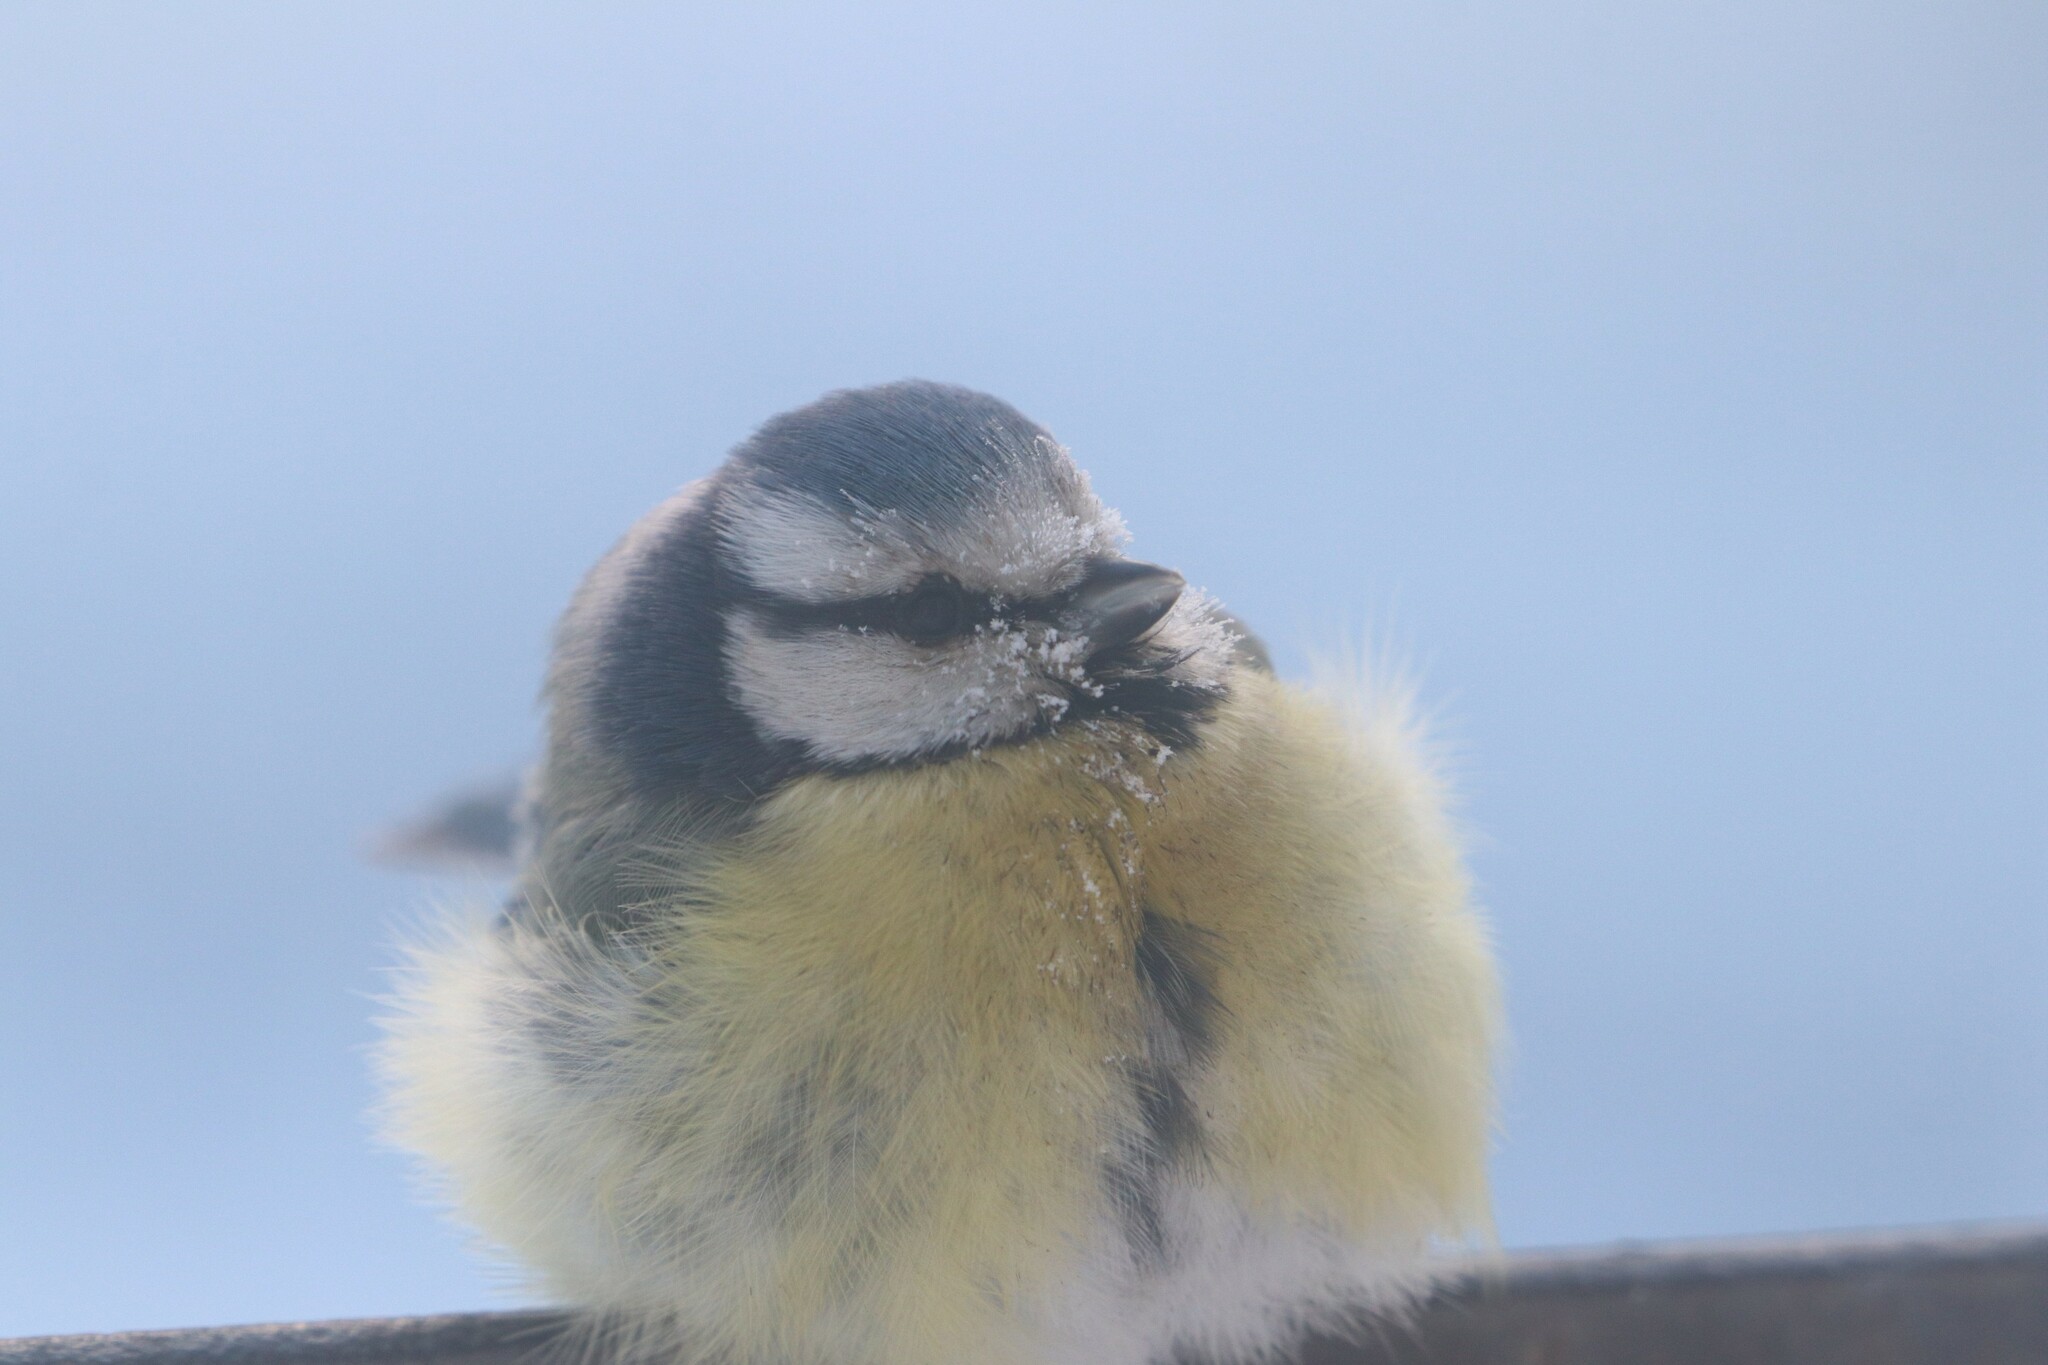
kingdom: Animalia
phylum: Chordata
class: Aves
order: Passeriformes
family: Paridae
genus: Cyanistes
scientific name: Cyanistes caeruleus
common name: Eurasian blue tit
